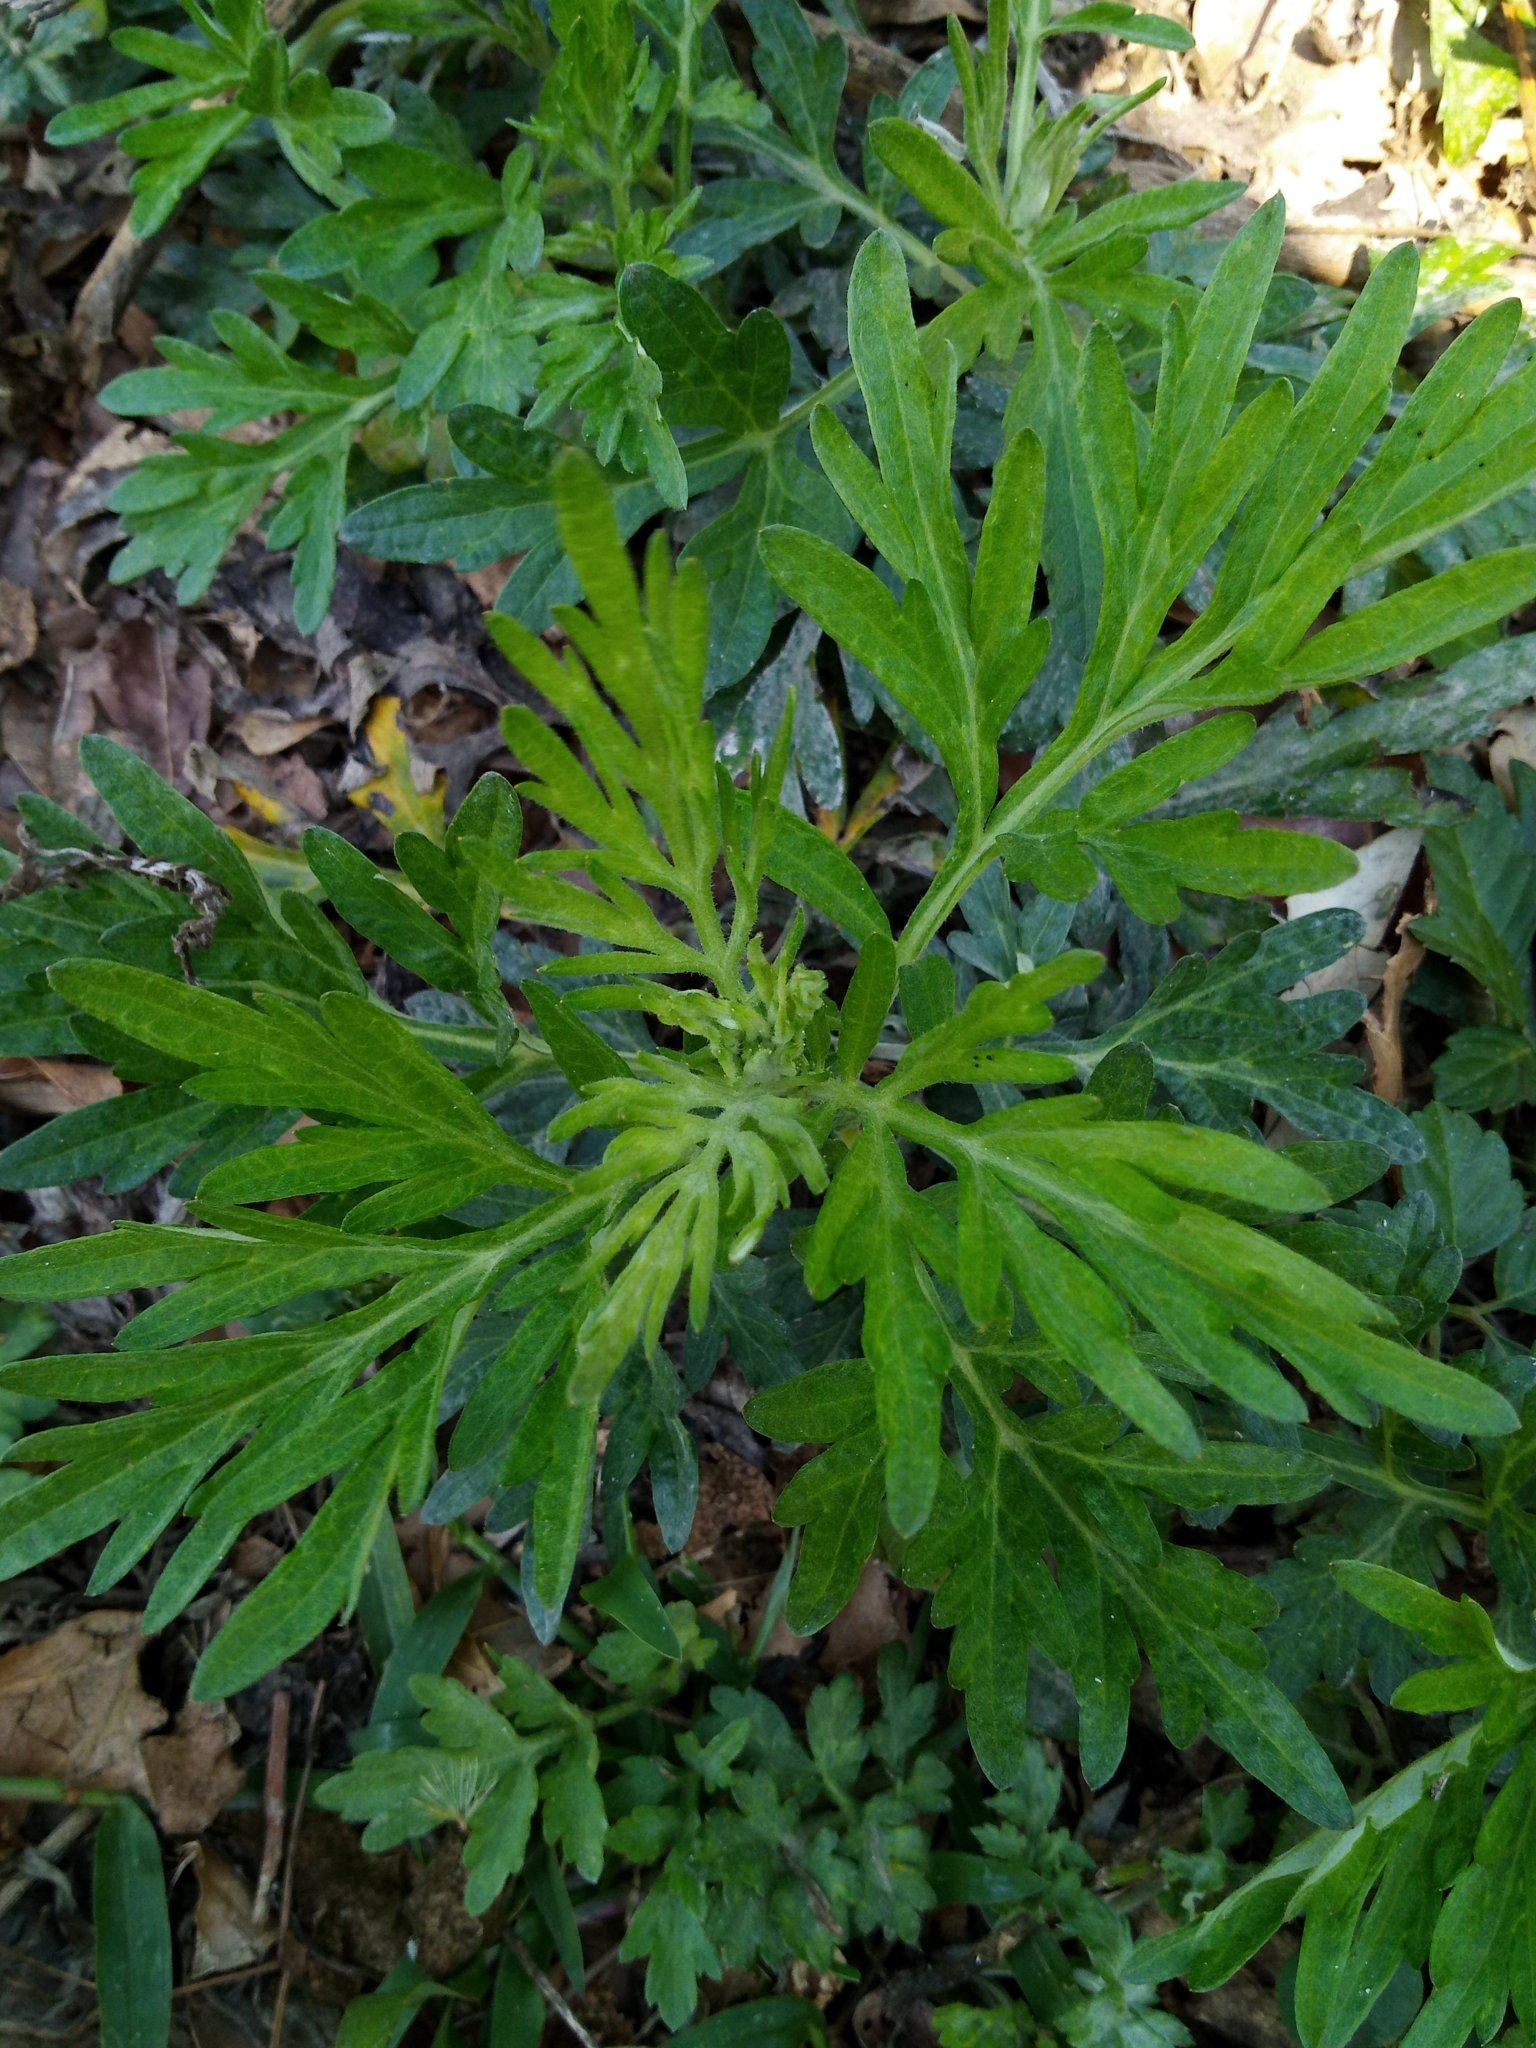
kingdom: Plantae
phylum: Tracheophyta
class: Magnoliopsida
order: Asterales
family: Asteraceae
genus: Artemisia
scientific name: Artemisia indica
